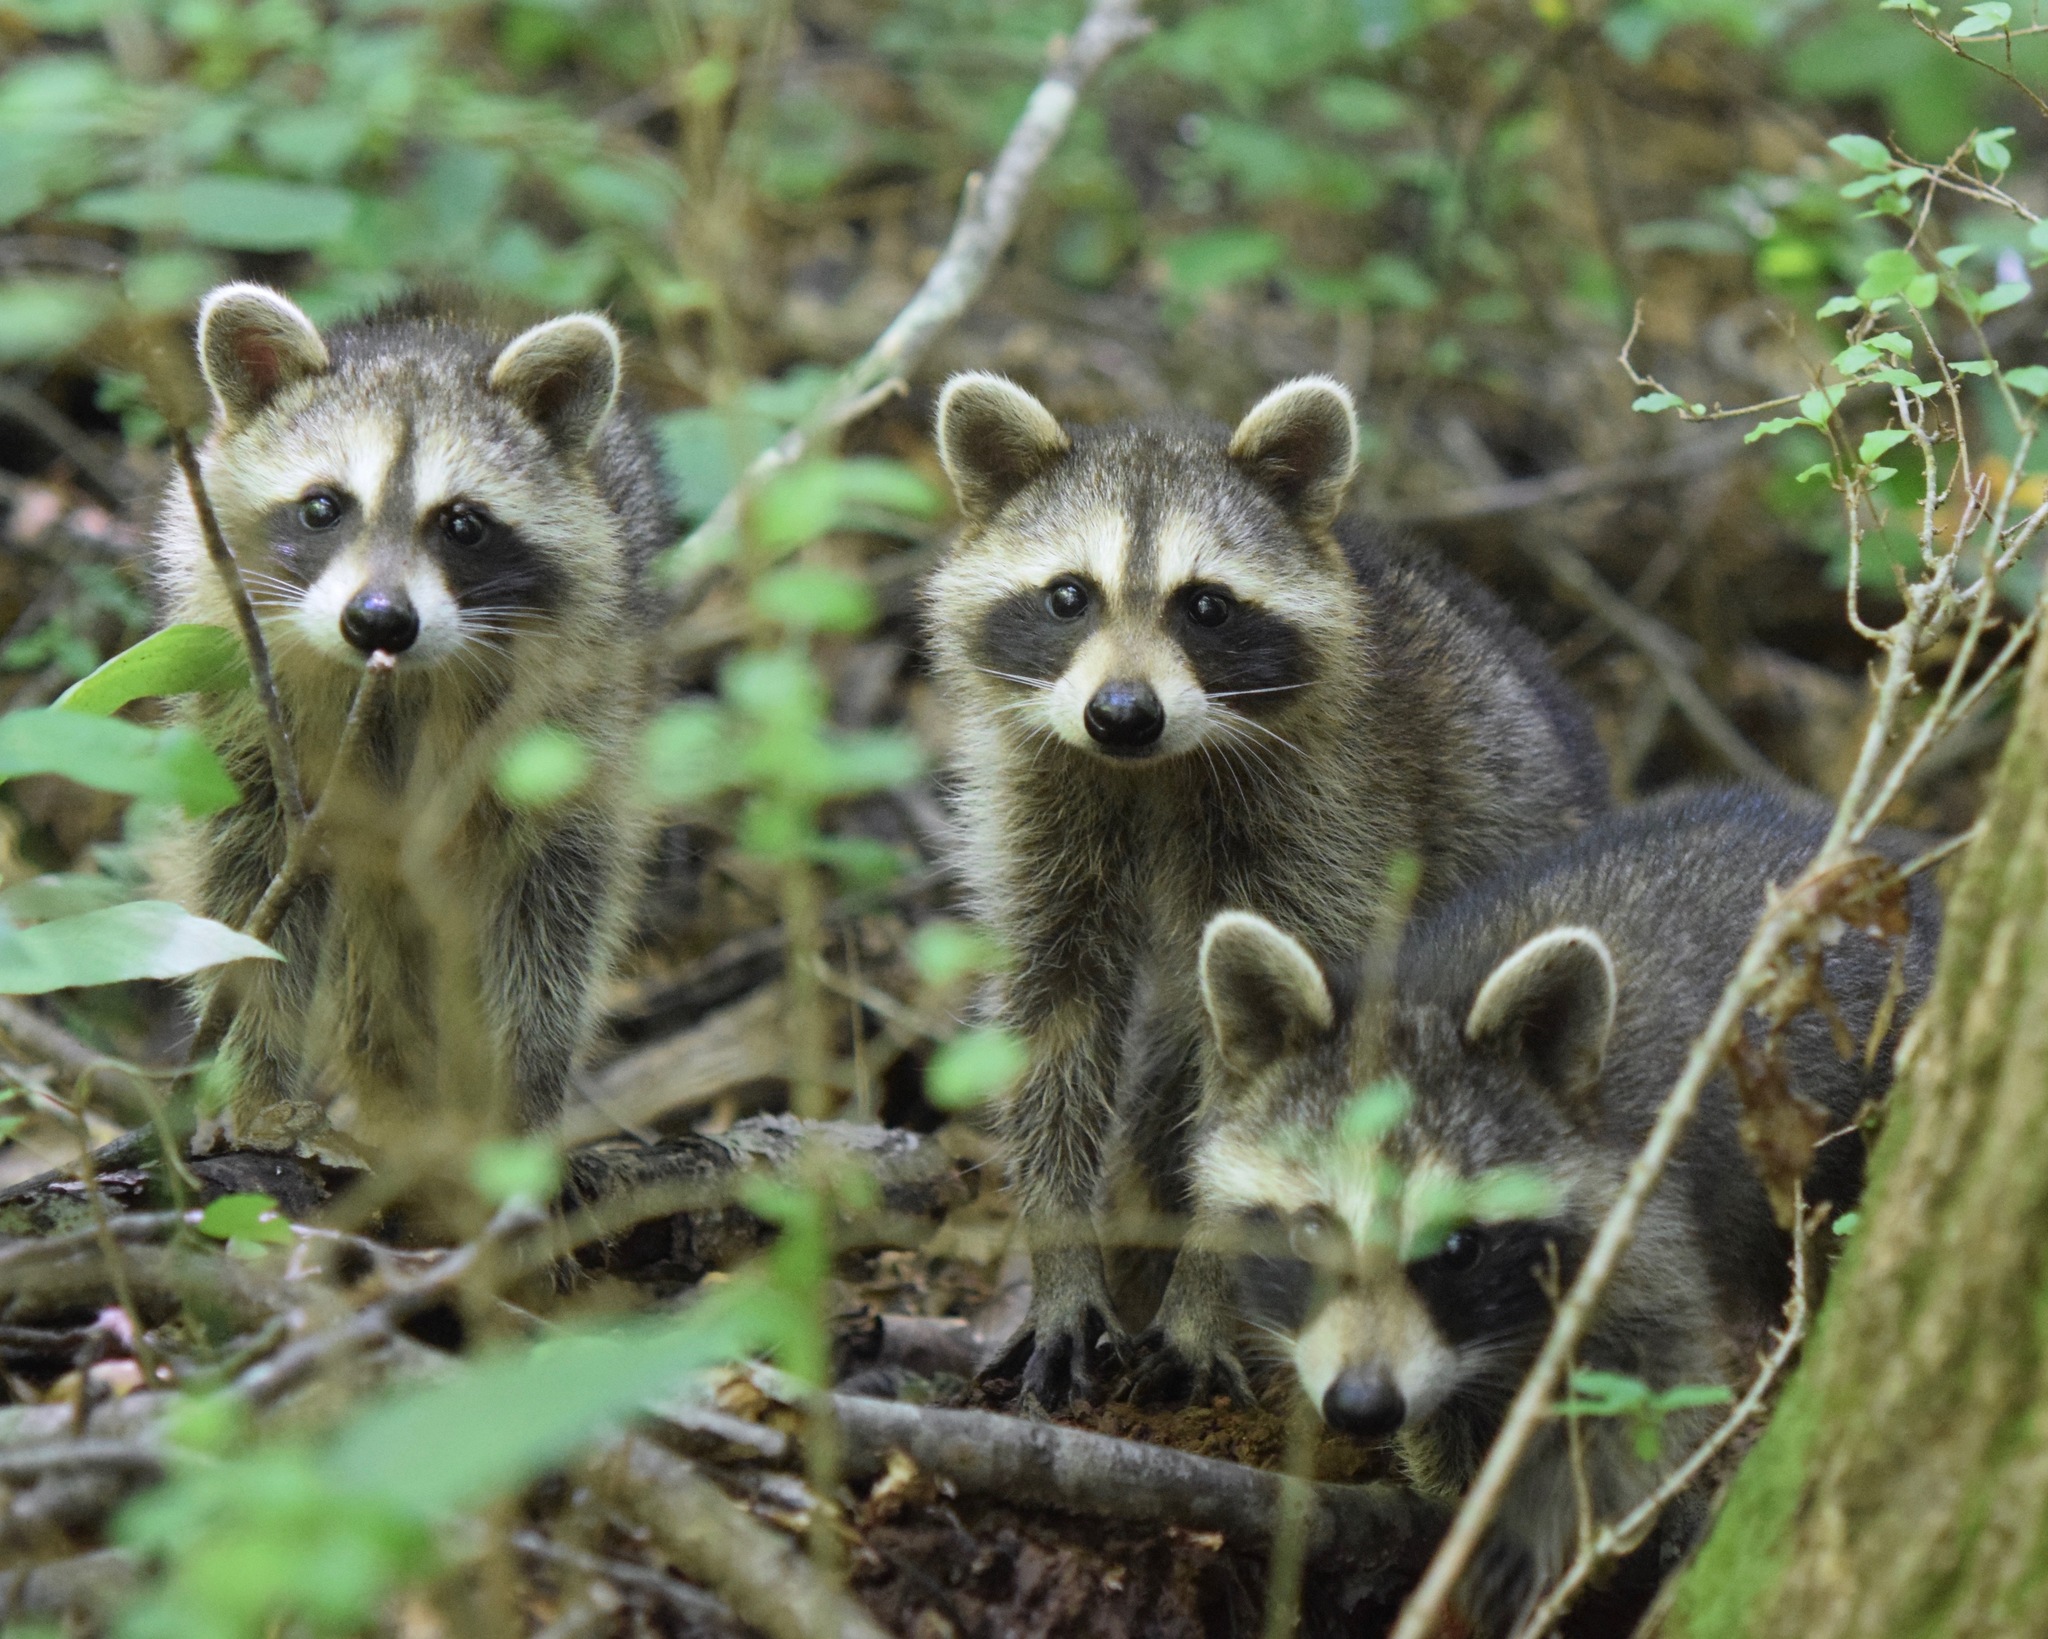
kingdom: Animalia
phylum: Chordata
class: Mammalia
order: Carnivora
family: Procyonidae
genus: Procyon
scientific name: Procyon lotor
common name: Raccoon
